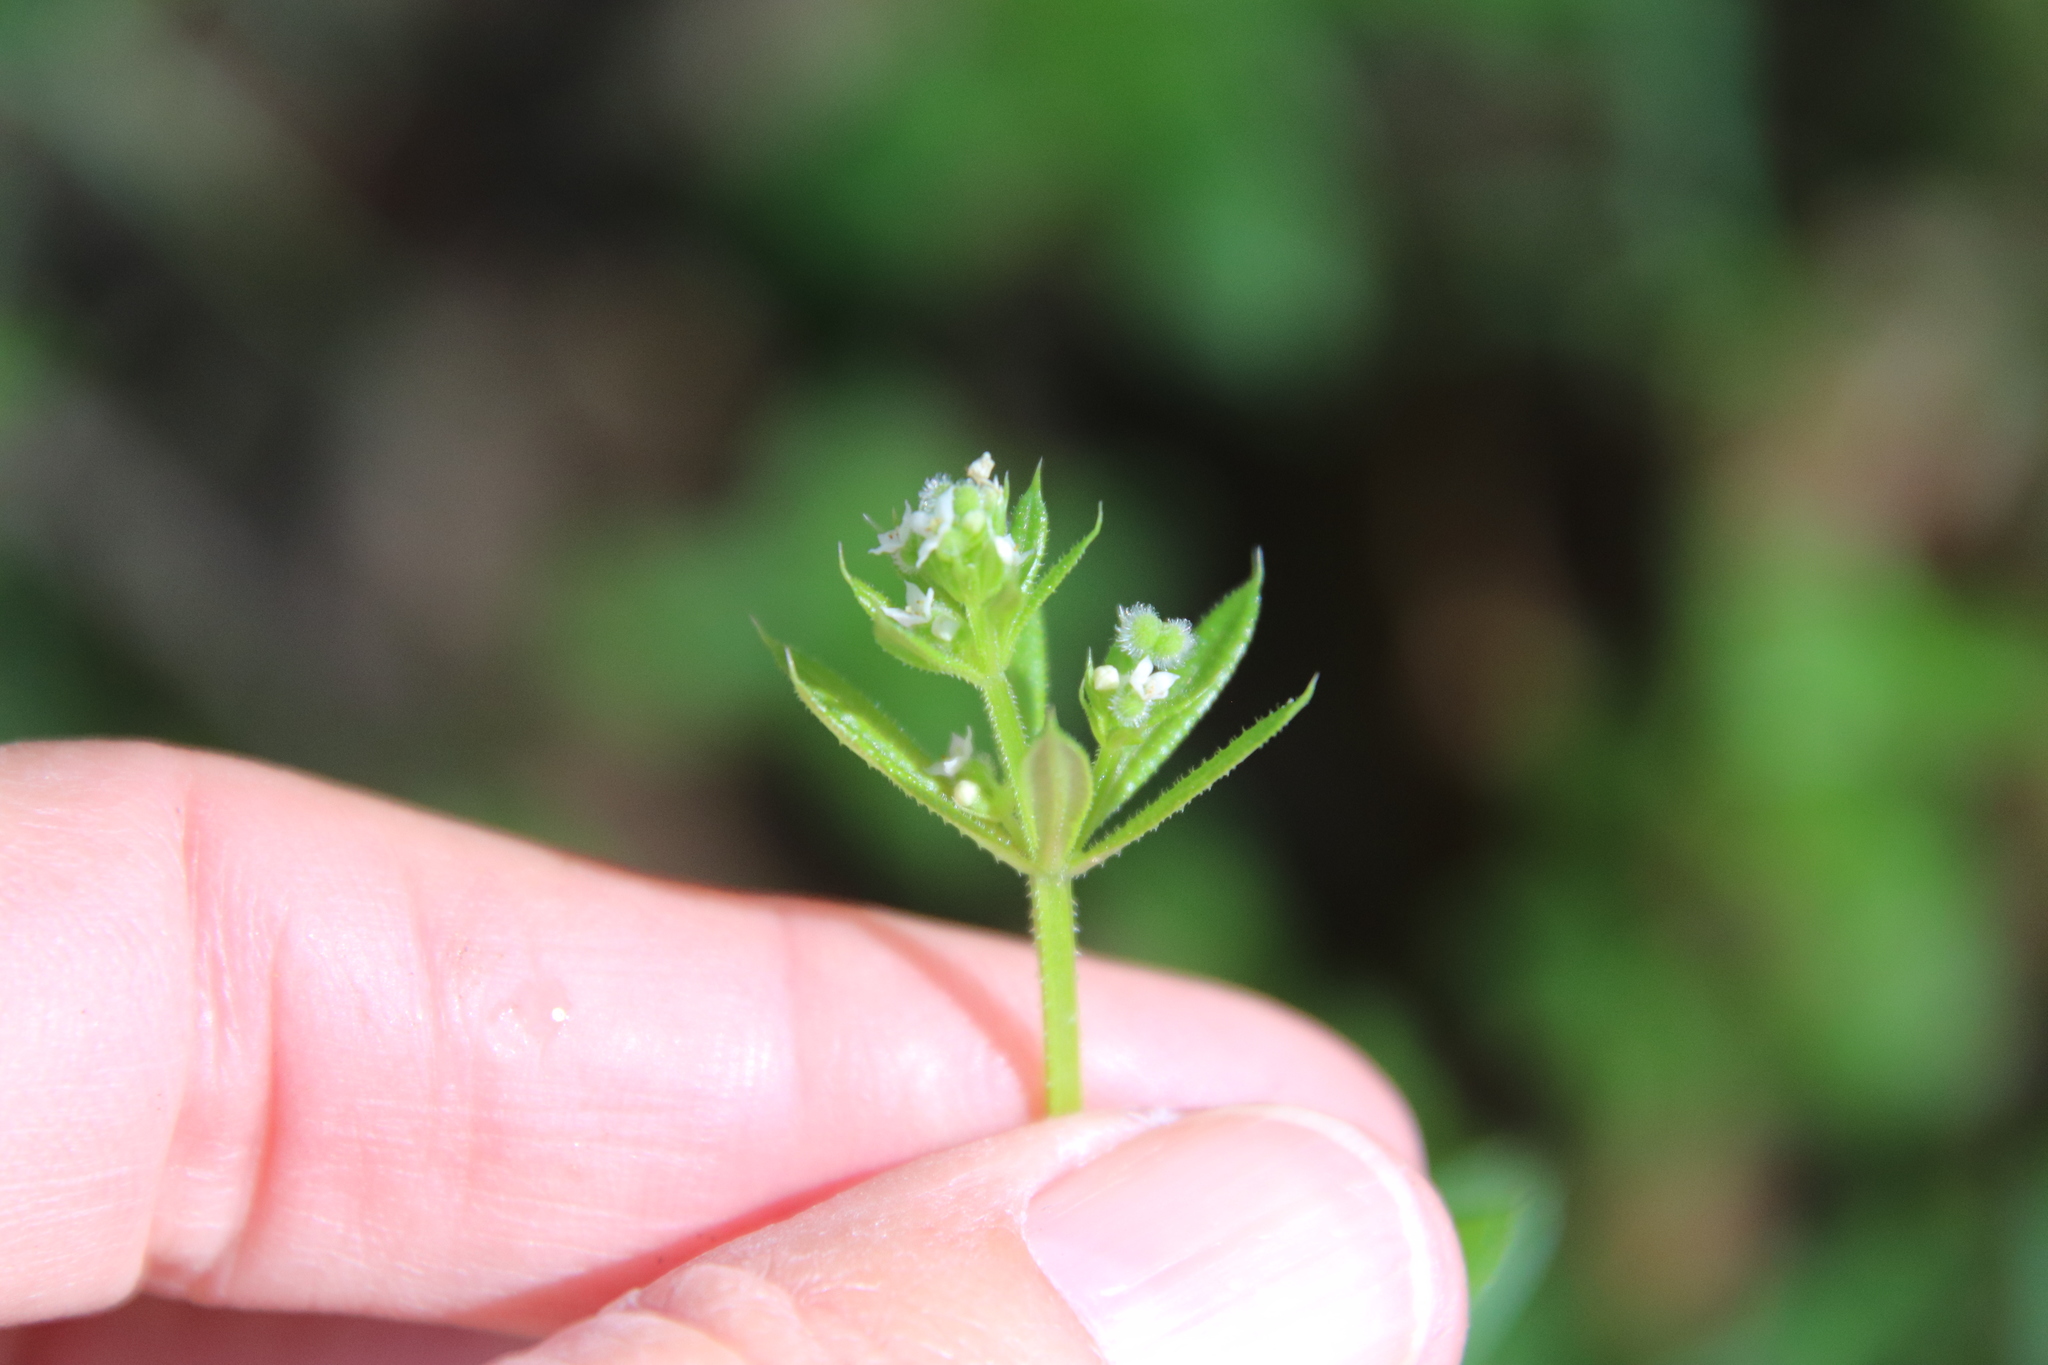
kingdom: Plantae
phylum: Tracheophyta
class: Magnoliopsida
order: Gentianales
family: Rubiaceae
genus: Galium
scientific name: Galium aparine
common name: Cleavers
